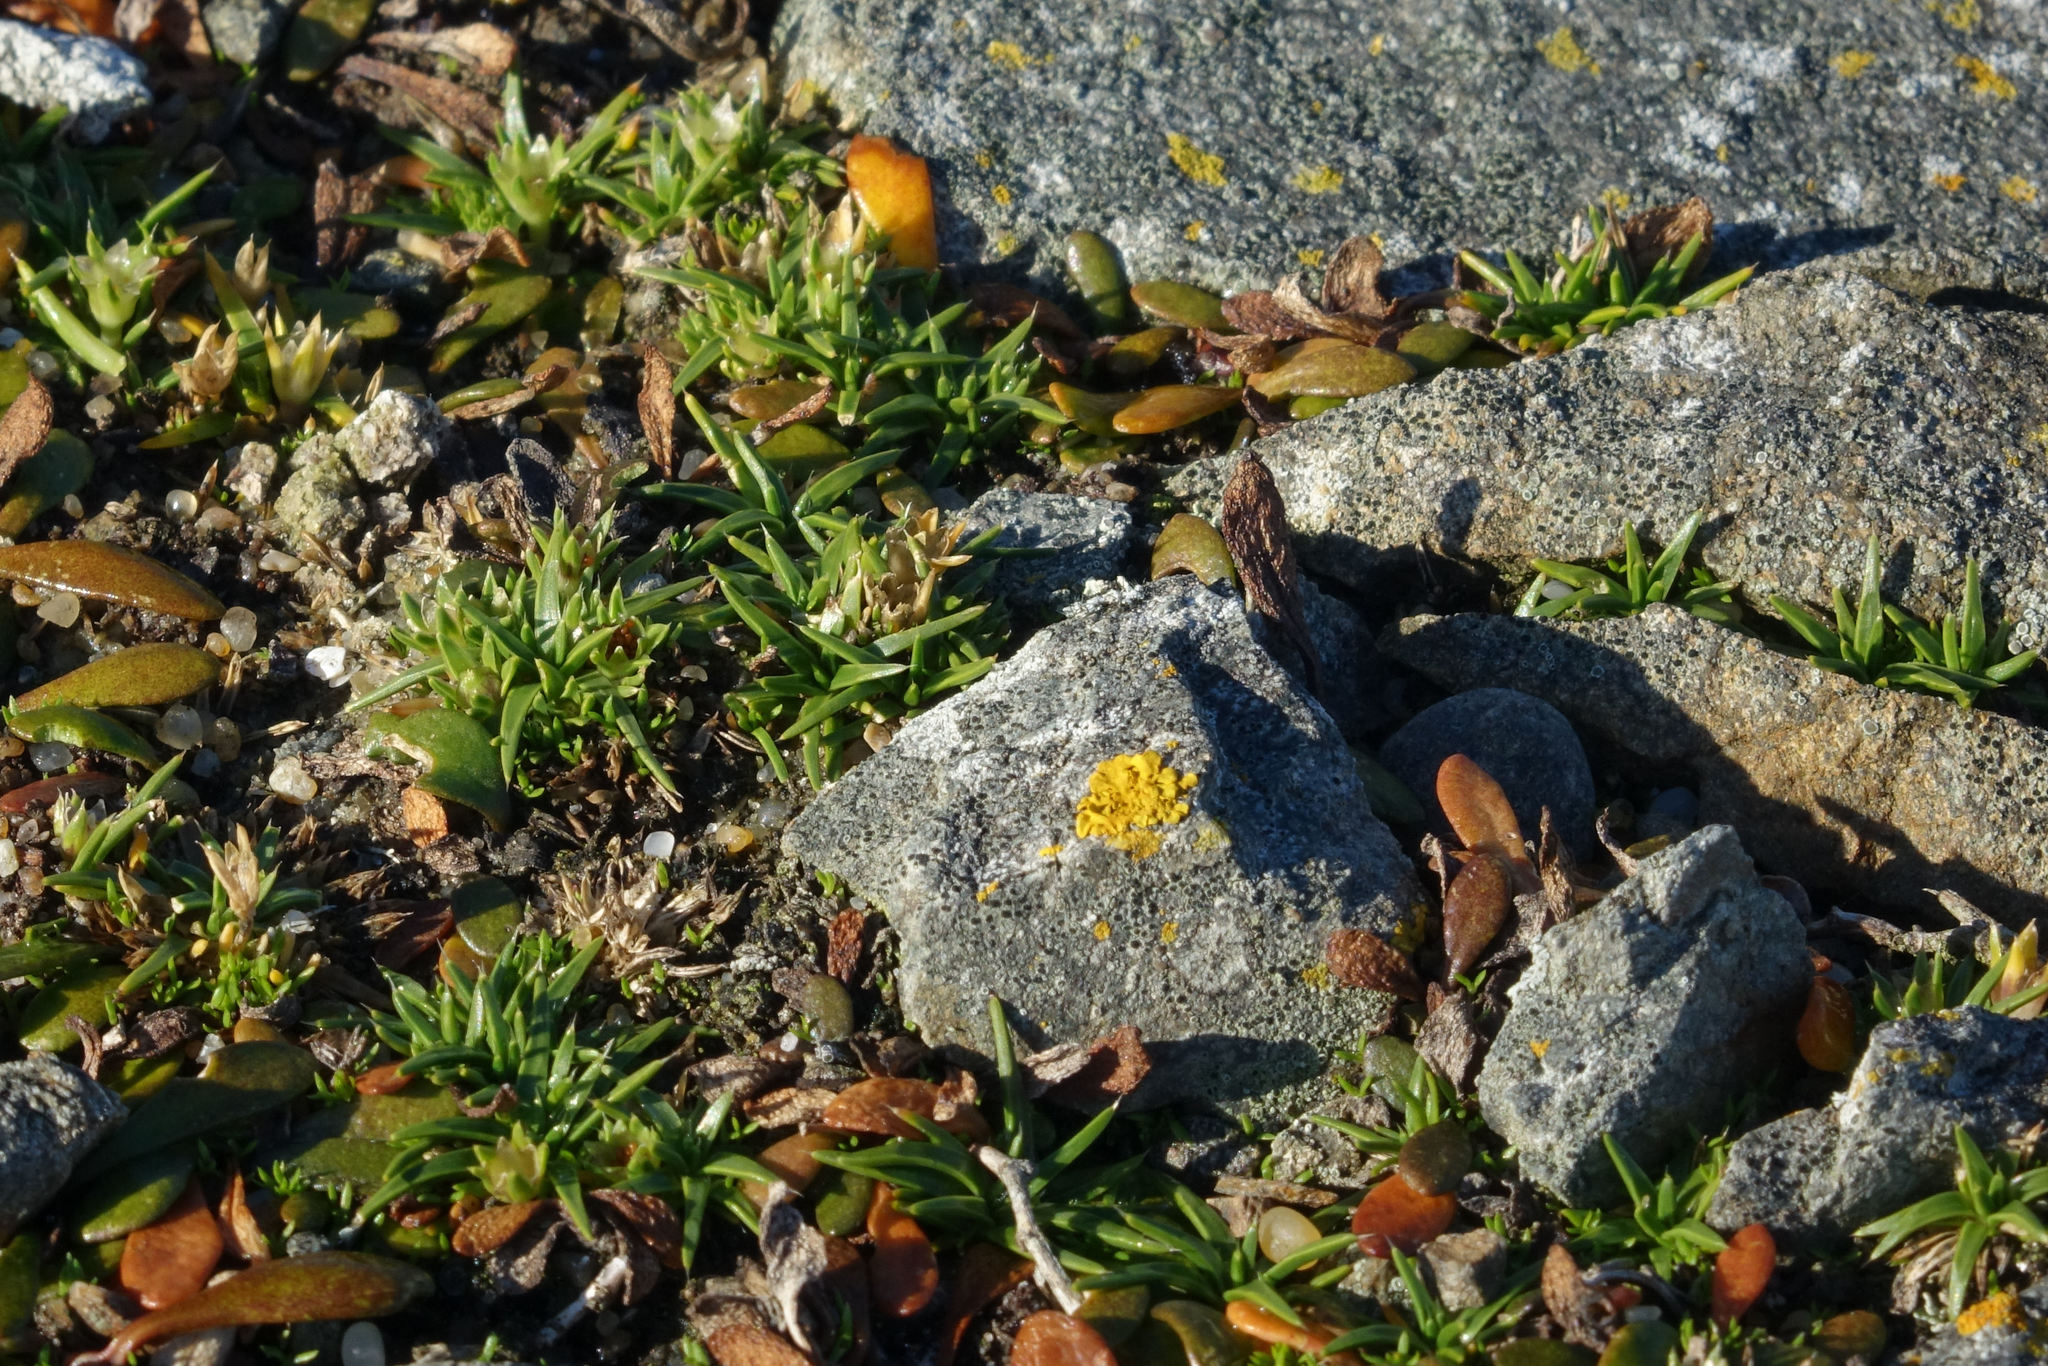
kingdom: Plantae
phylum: Tracheophyta
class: Magnoliopsida
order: Caryophyllales
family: Caryophyllaceae
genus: Colobanthus
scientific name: Colobanthus muelleri
